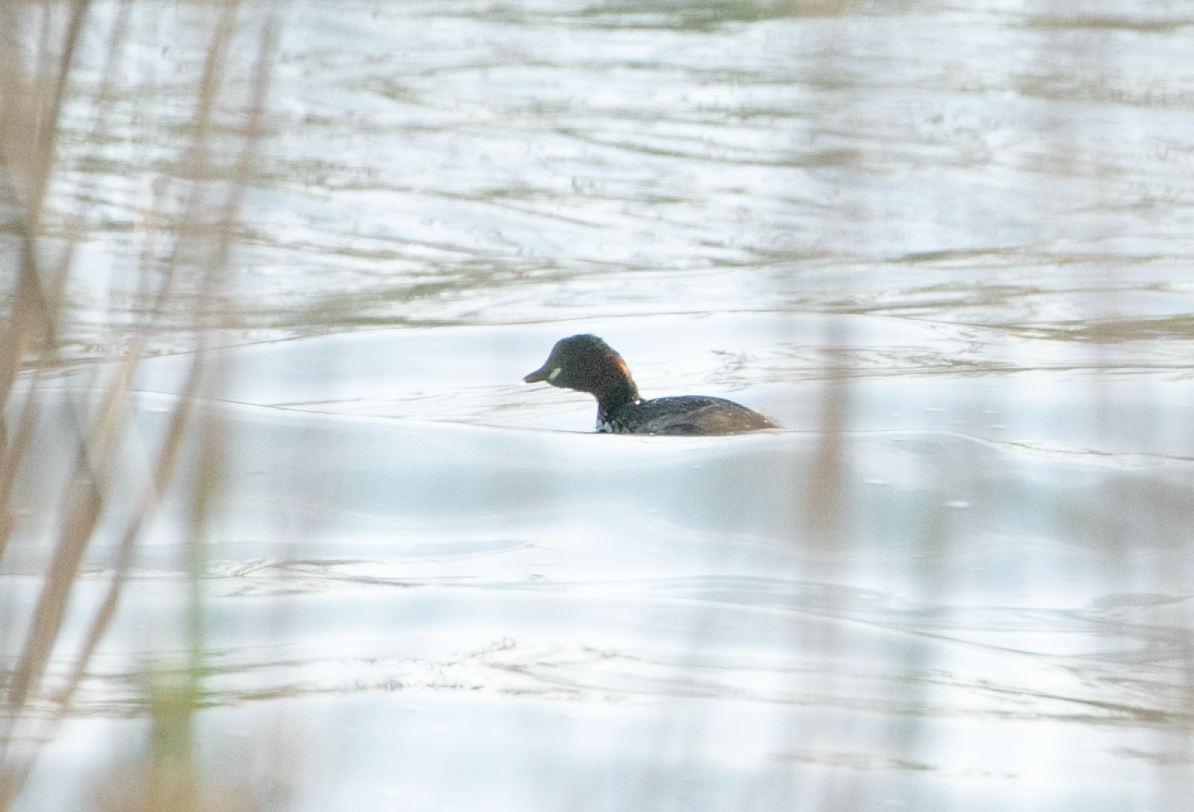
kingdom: Animalia
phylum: Chordata
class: Aves
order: Podicipediformes
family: Podicipedidae
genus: Tachybaptus
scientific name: Tachybaptus ruficollis
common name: Little grebe
